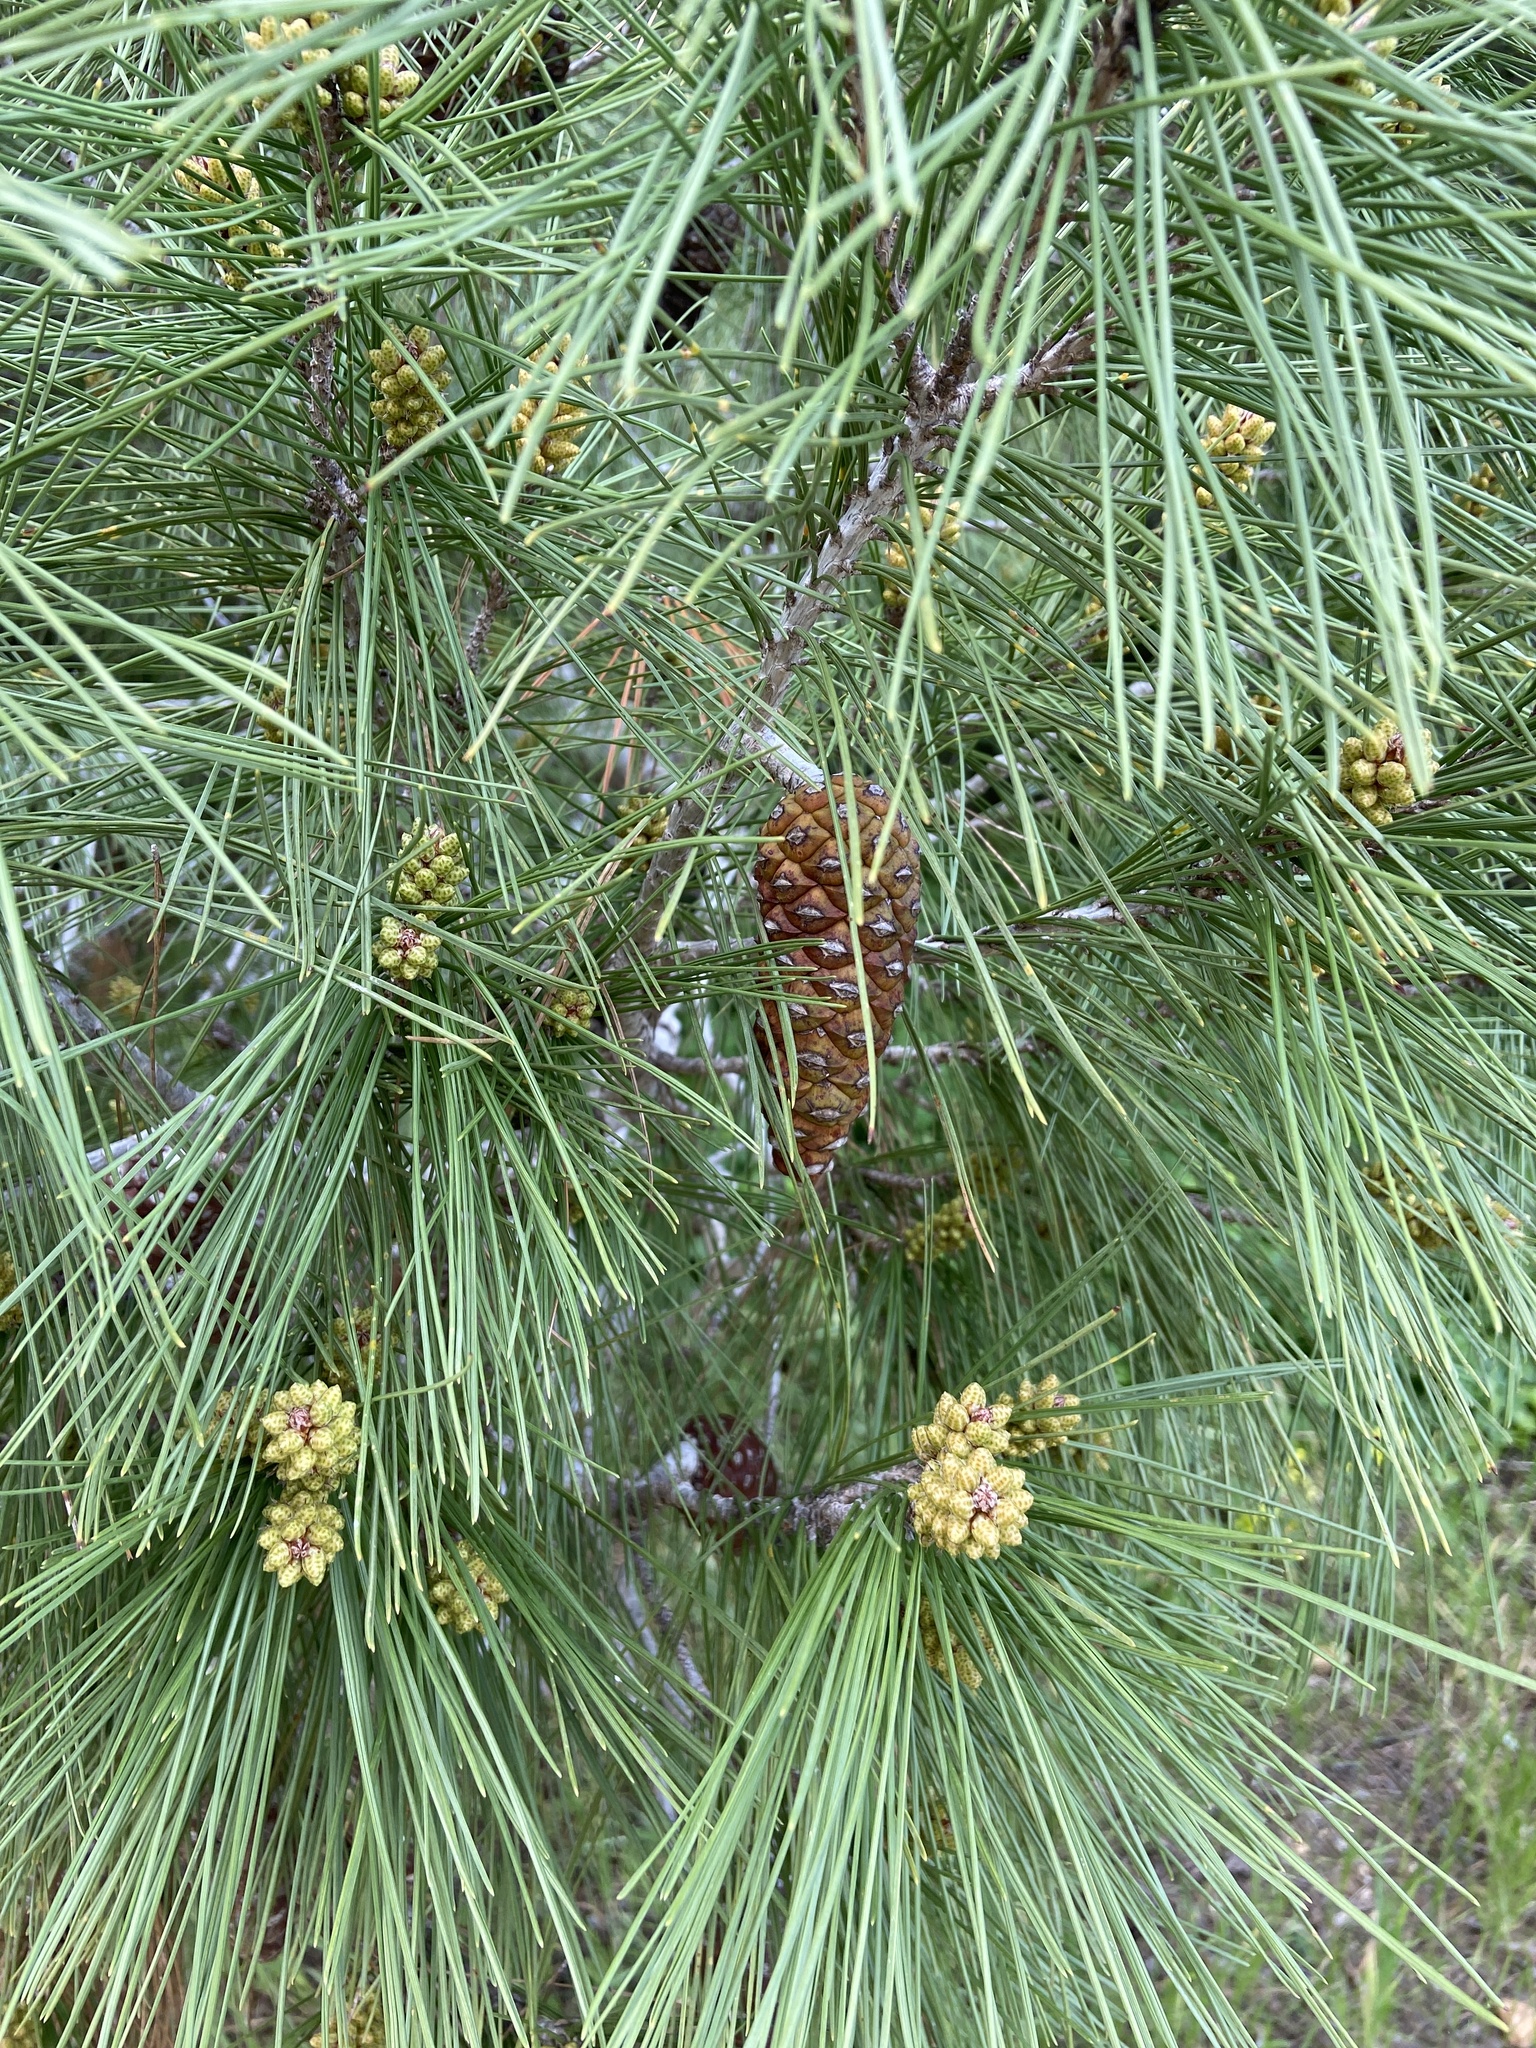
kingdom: Plantae
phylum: Tracheophyta
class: Pinopsida
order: Pinales
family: Pinaceae
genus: Pinus
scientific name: Pinus halepensis
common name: Aleppo pine
